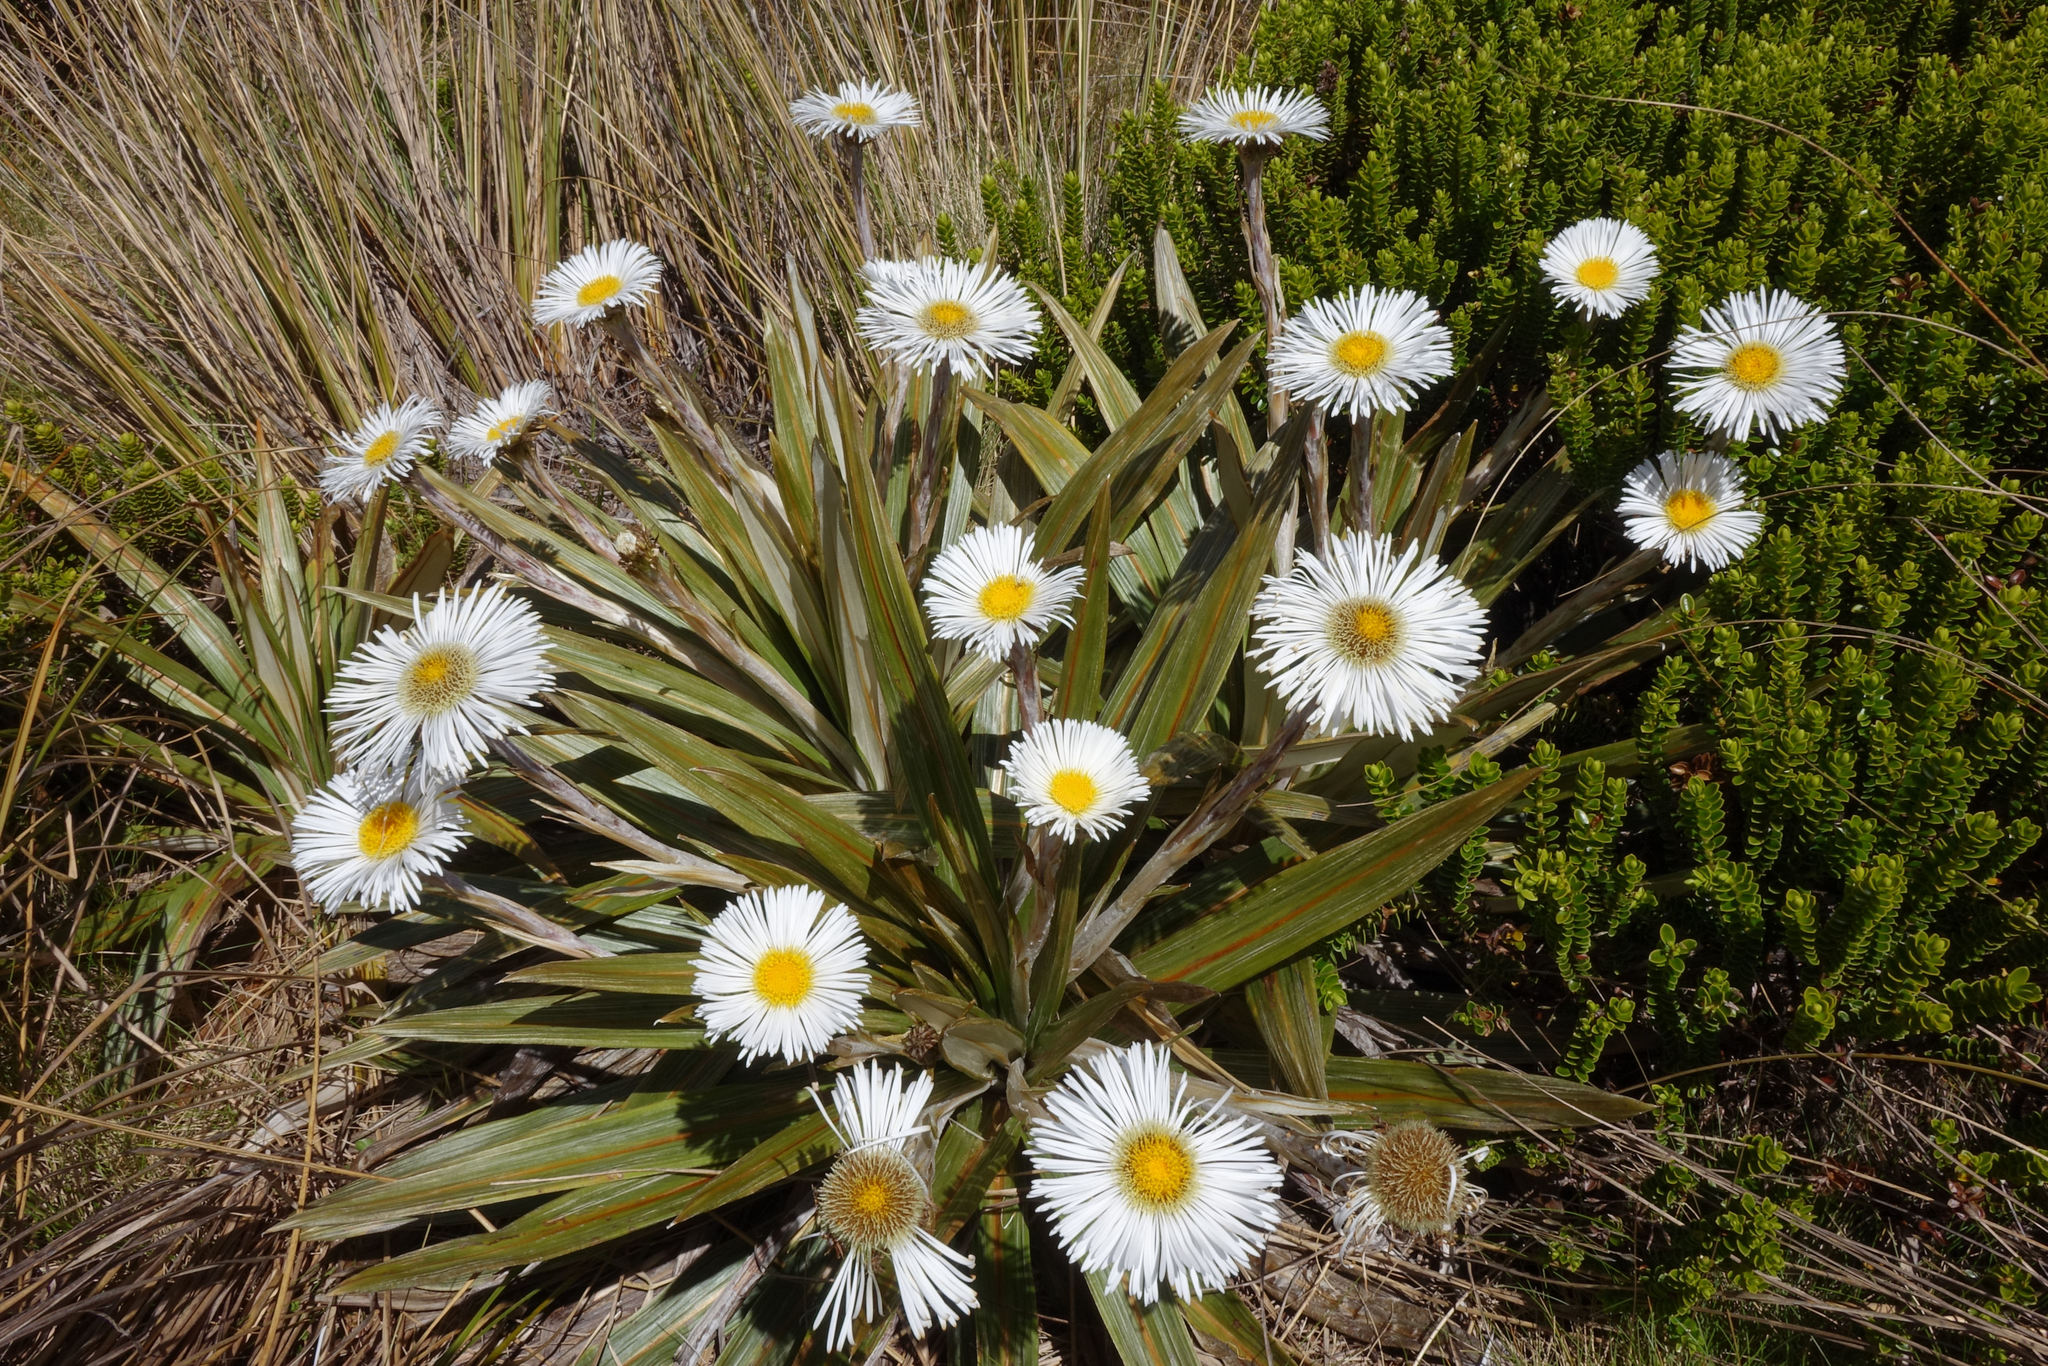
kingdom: Plantae
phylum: Tracheophyta
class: Magnoliopsida
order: Asterales
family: Asteraceae
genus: Celmisia
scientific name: Celmisia coriacea
